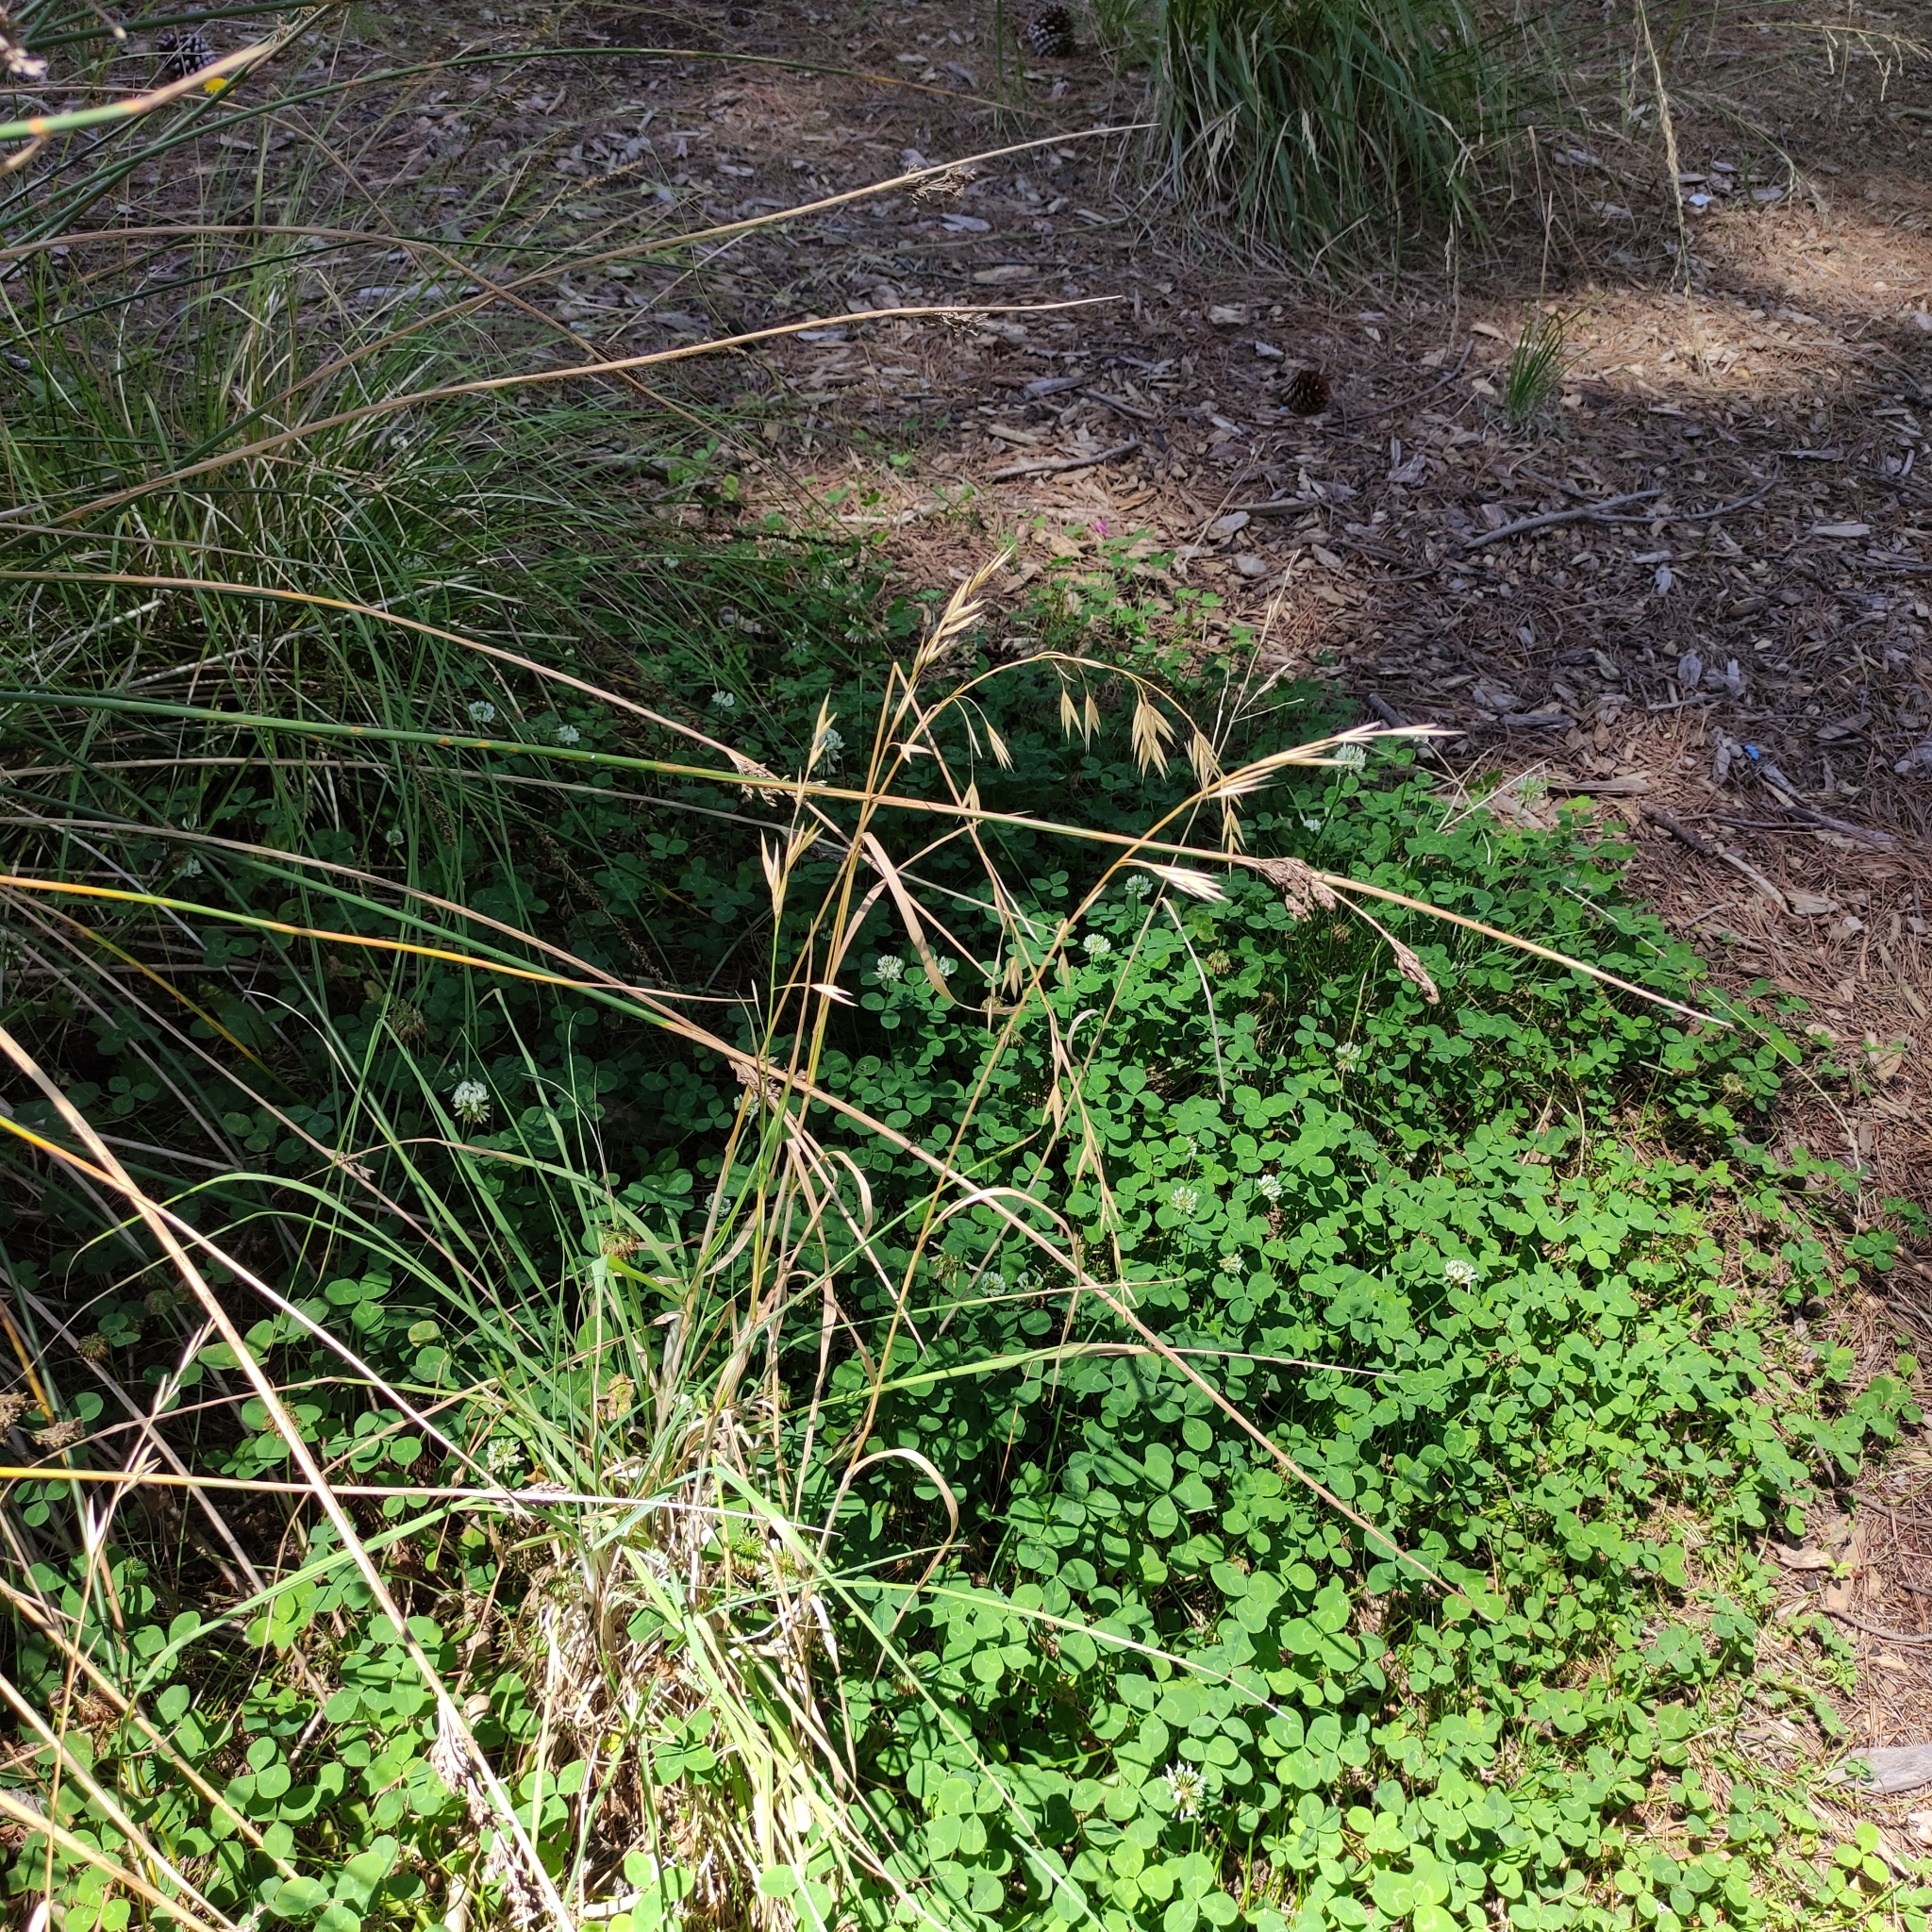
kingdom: Plantae
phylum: Tracheophyta
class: Liliopsida
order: Poales
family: Poaceae
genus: Bromus
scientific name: Bromus catharticus
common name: Rescuegrass
